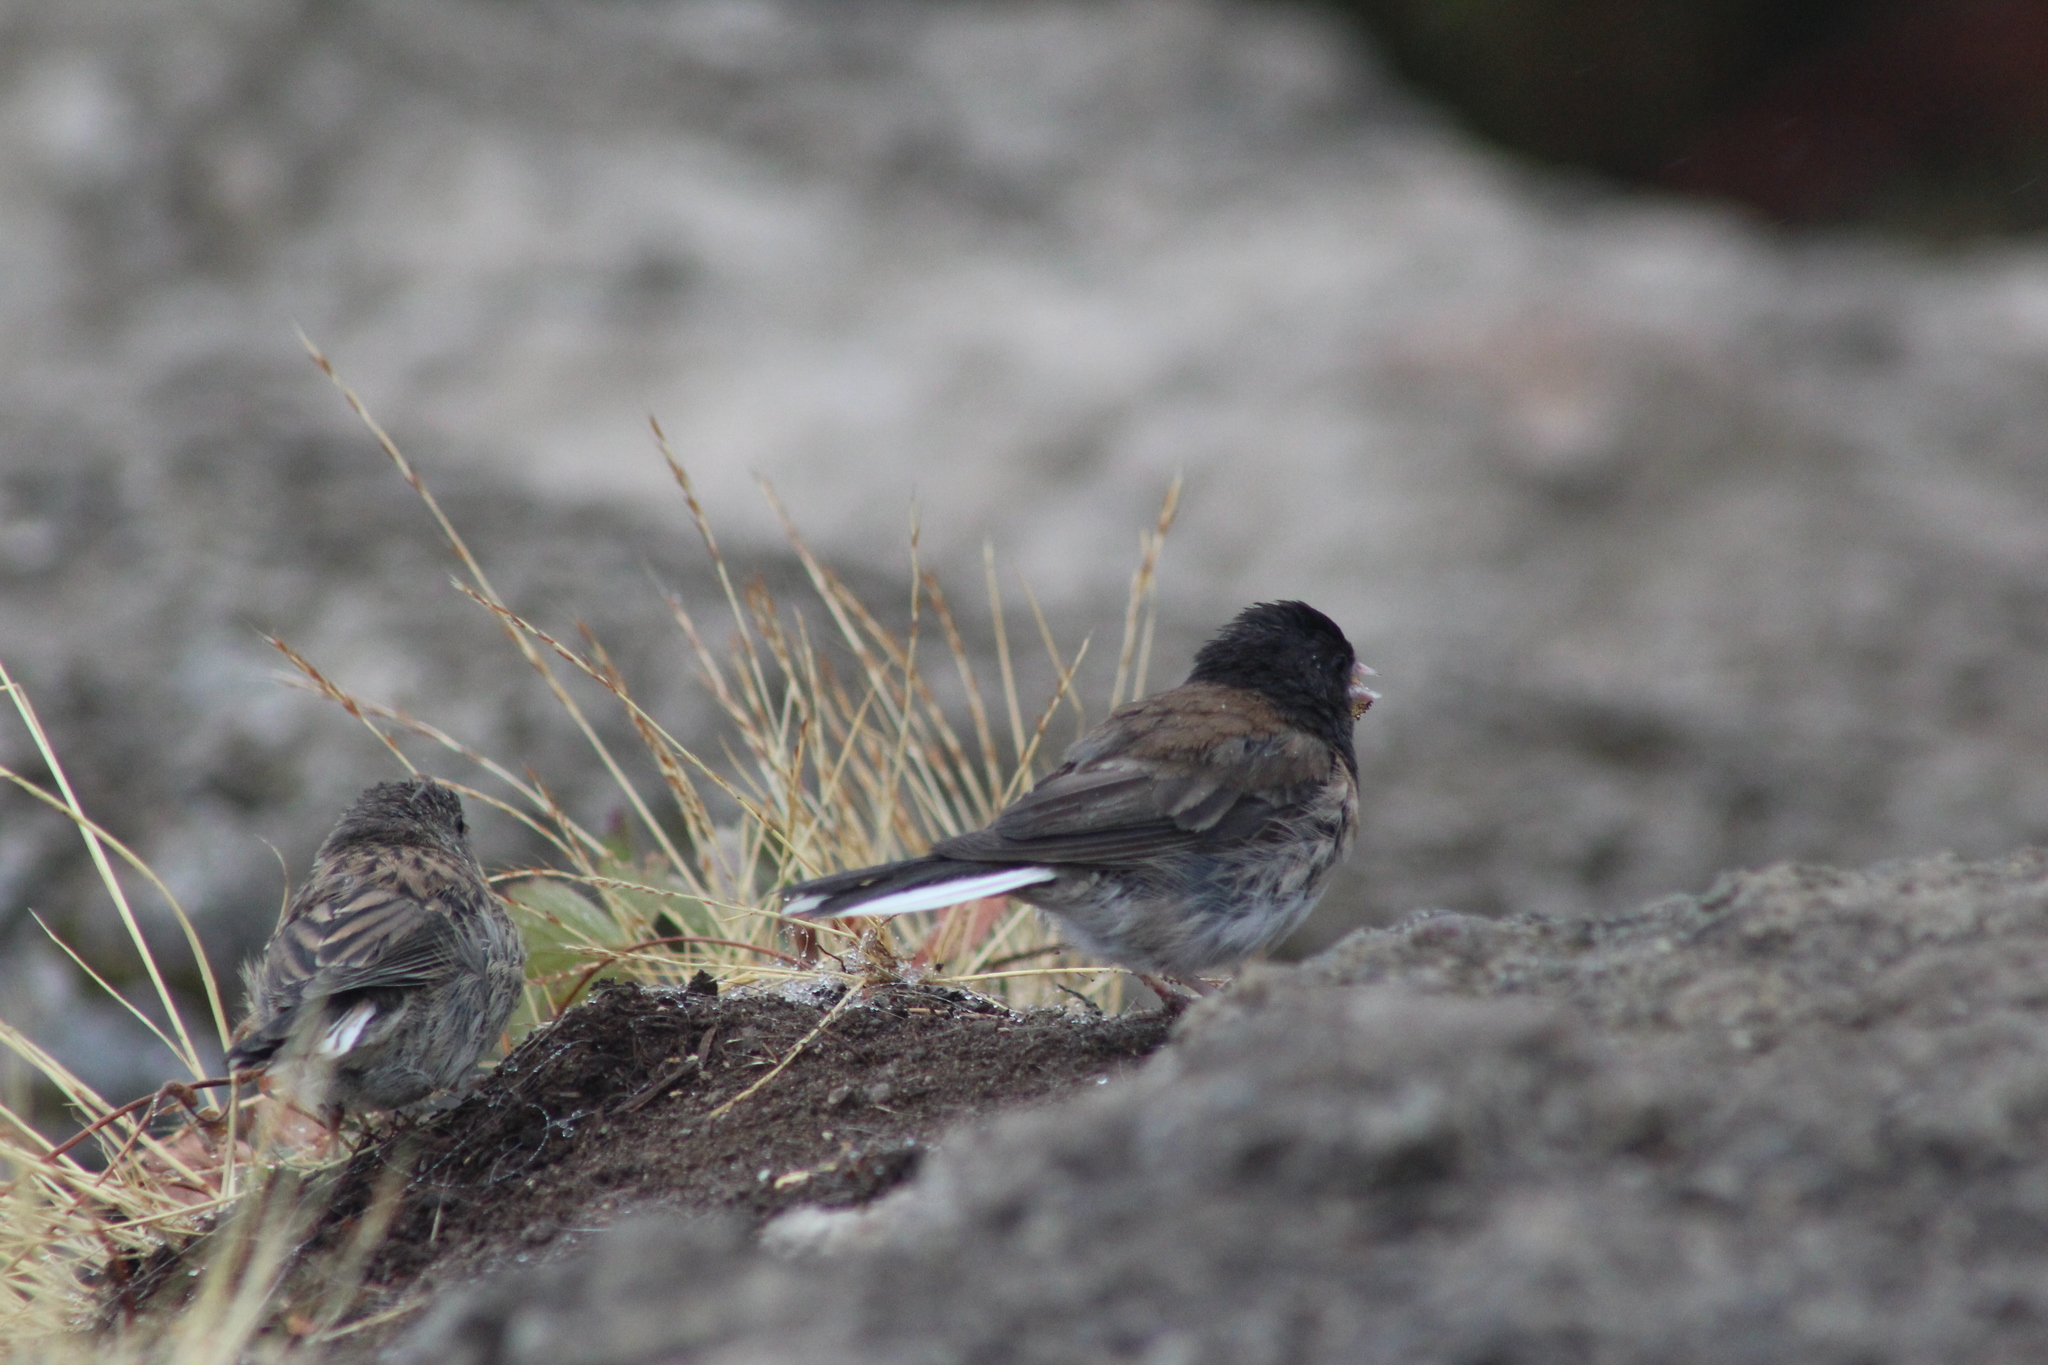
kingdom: Animalia
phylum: Chordata
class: Aves
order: Passeriformes
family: Passerellidae
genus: Junco
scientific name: Junco hyemalis
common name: Dark-eyed junco
